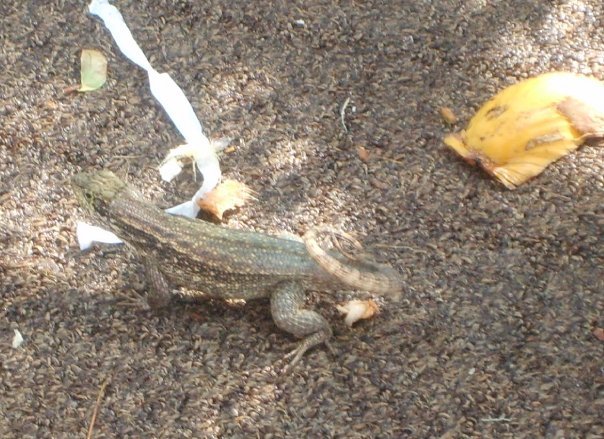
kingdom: Animalia
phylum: Chordata
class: Squamata
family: Leiocephalidae
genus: Leiocephalus
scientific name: Leiocephalus carinatus
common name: Northern curly-tailed lizard
